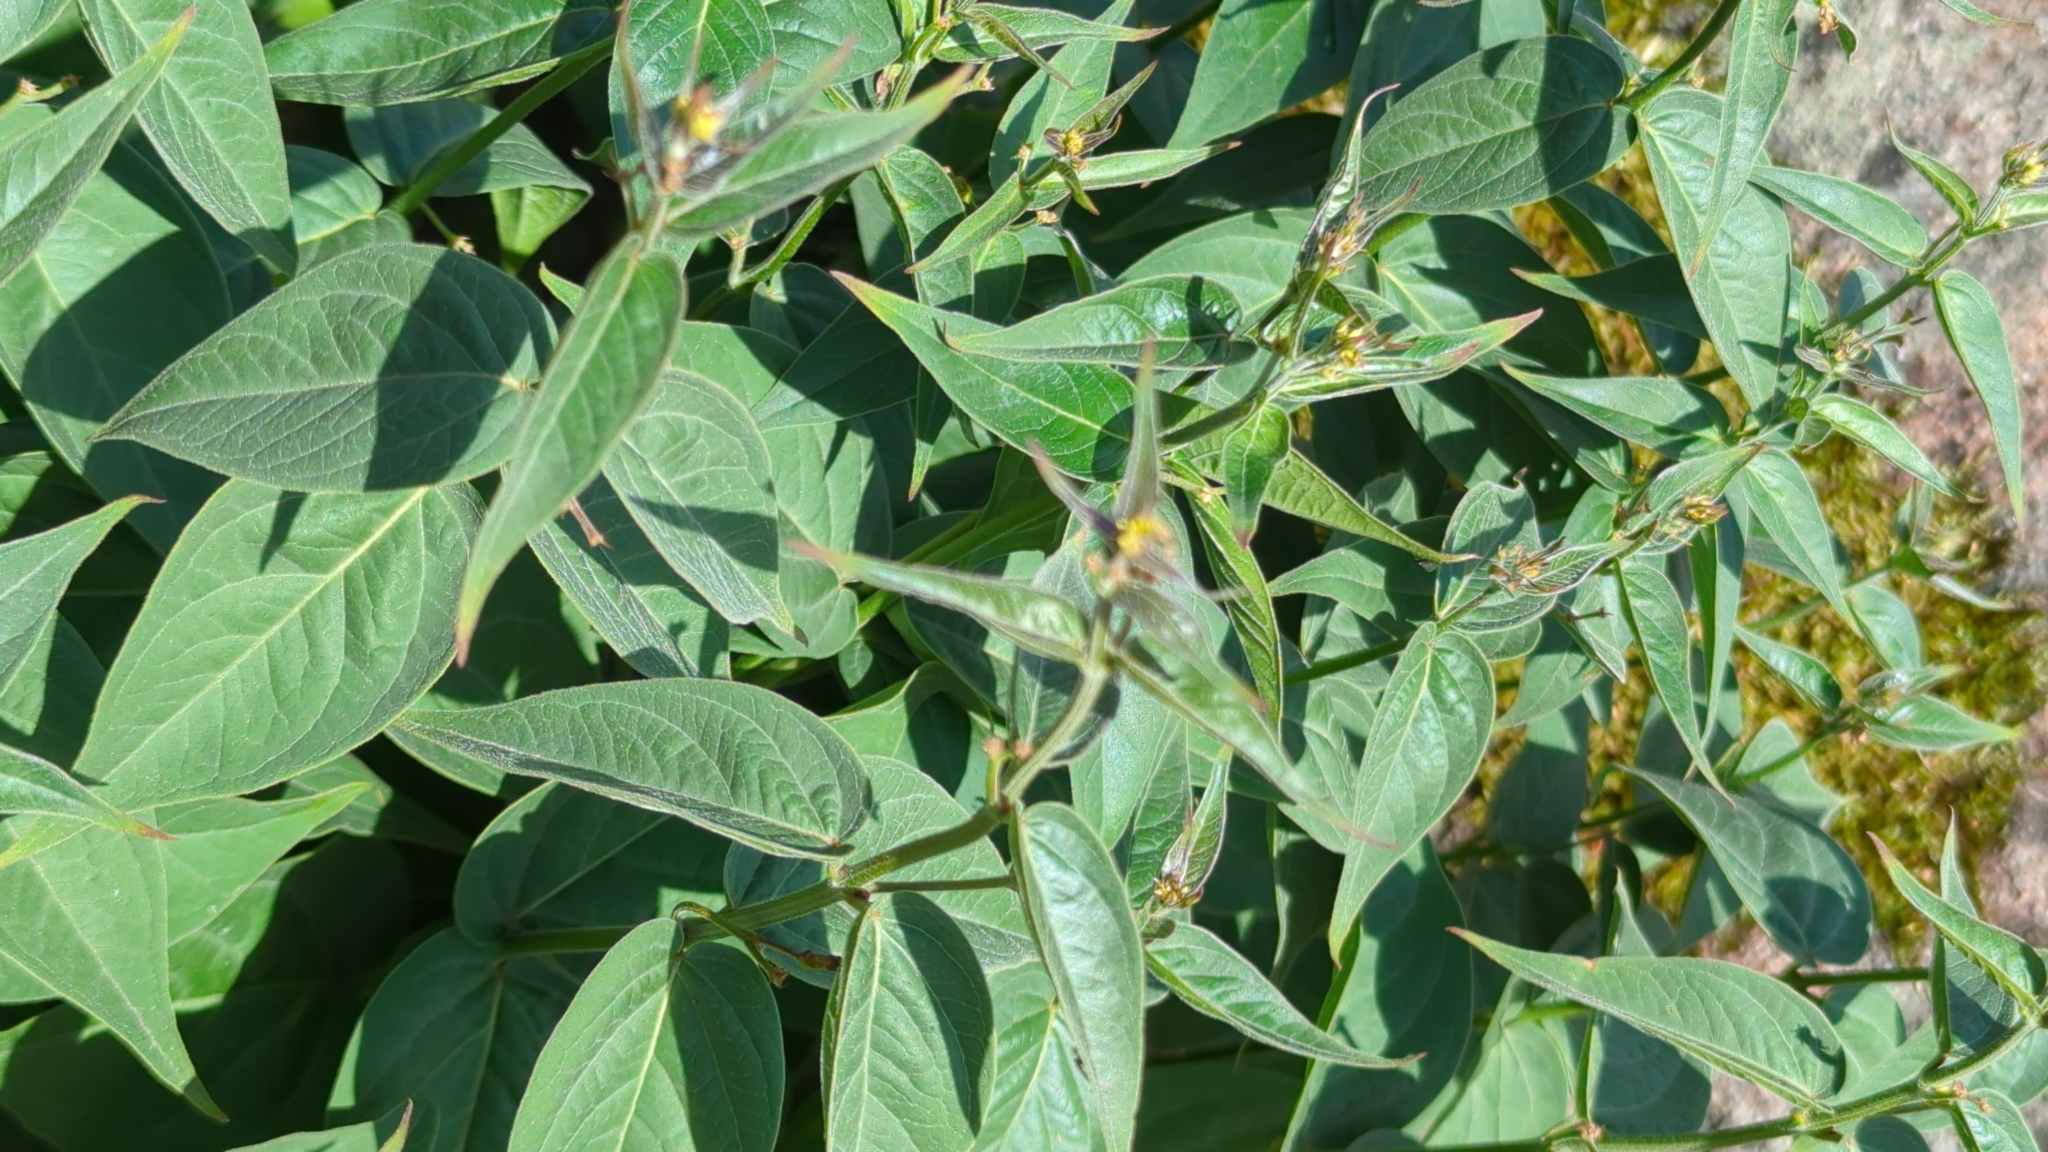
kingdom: Plantae
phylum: Tracheophyta
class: Magnoliopsida
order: Gentianales
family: Apocynaceae
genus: Vincetoxicum
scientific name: Vincetoxicum hirundinaria
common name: White swallowwort
